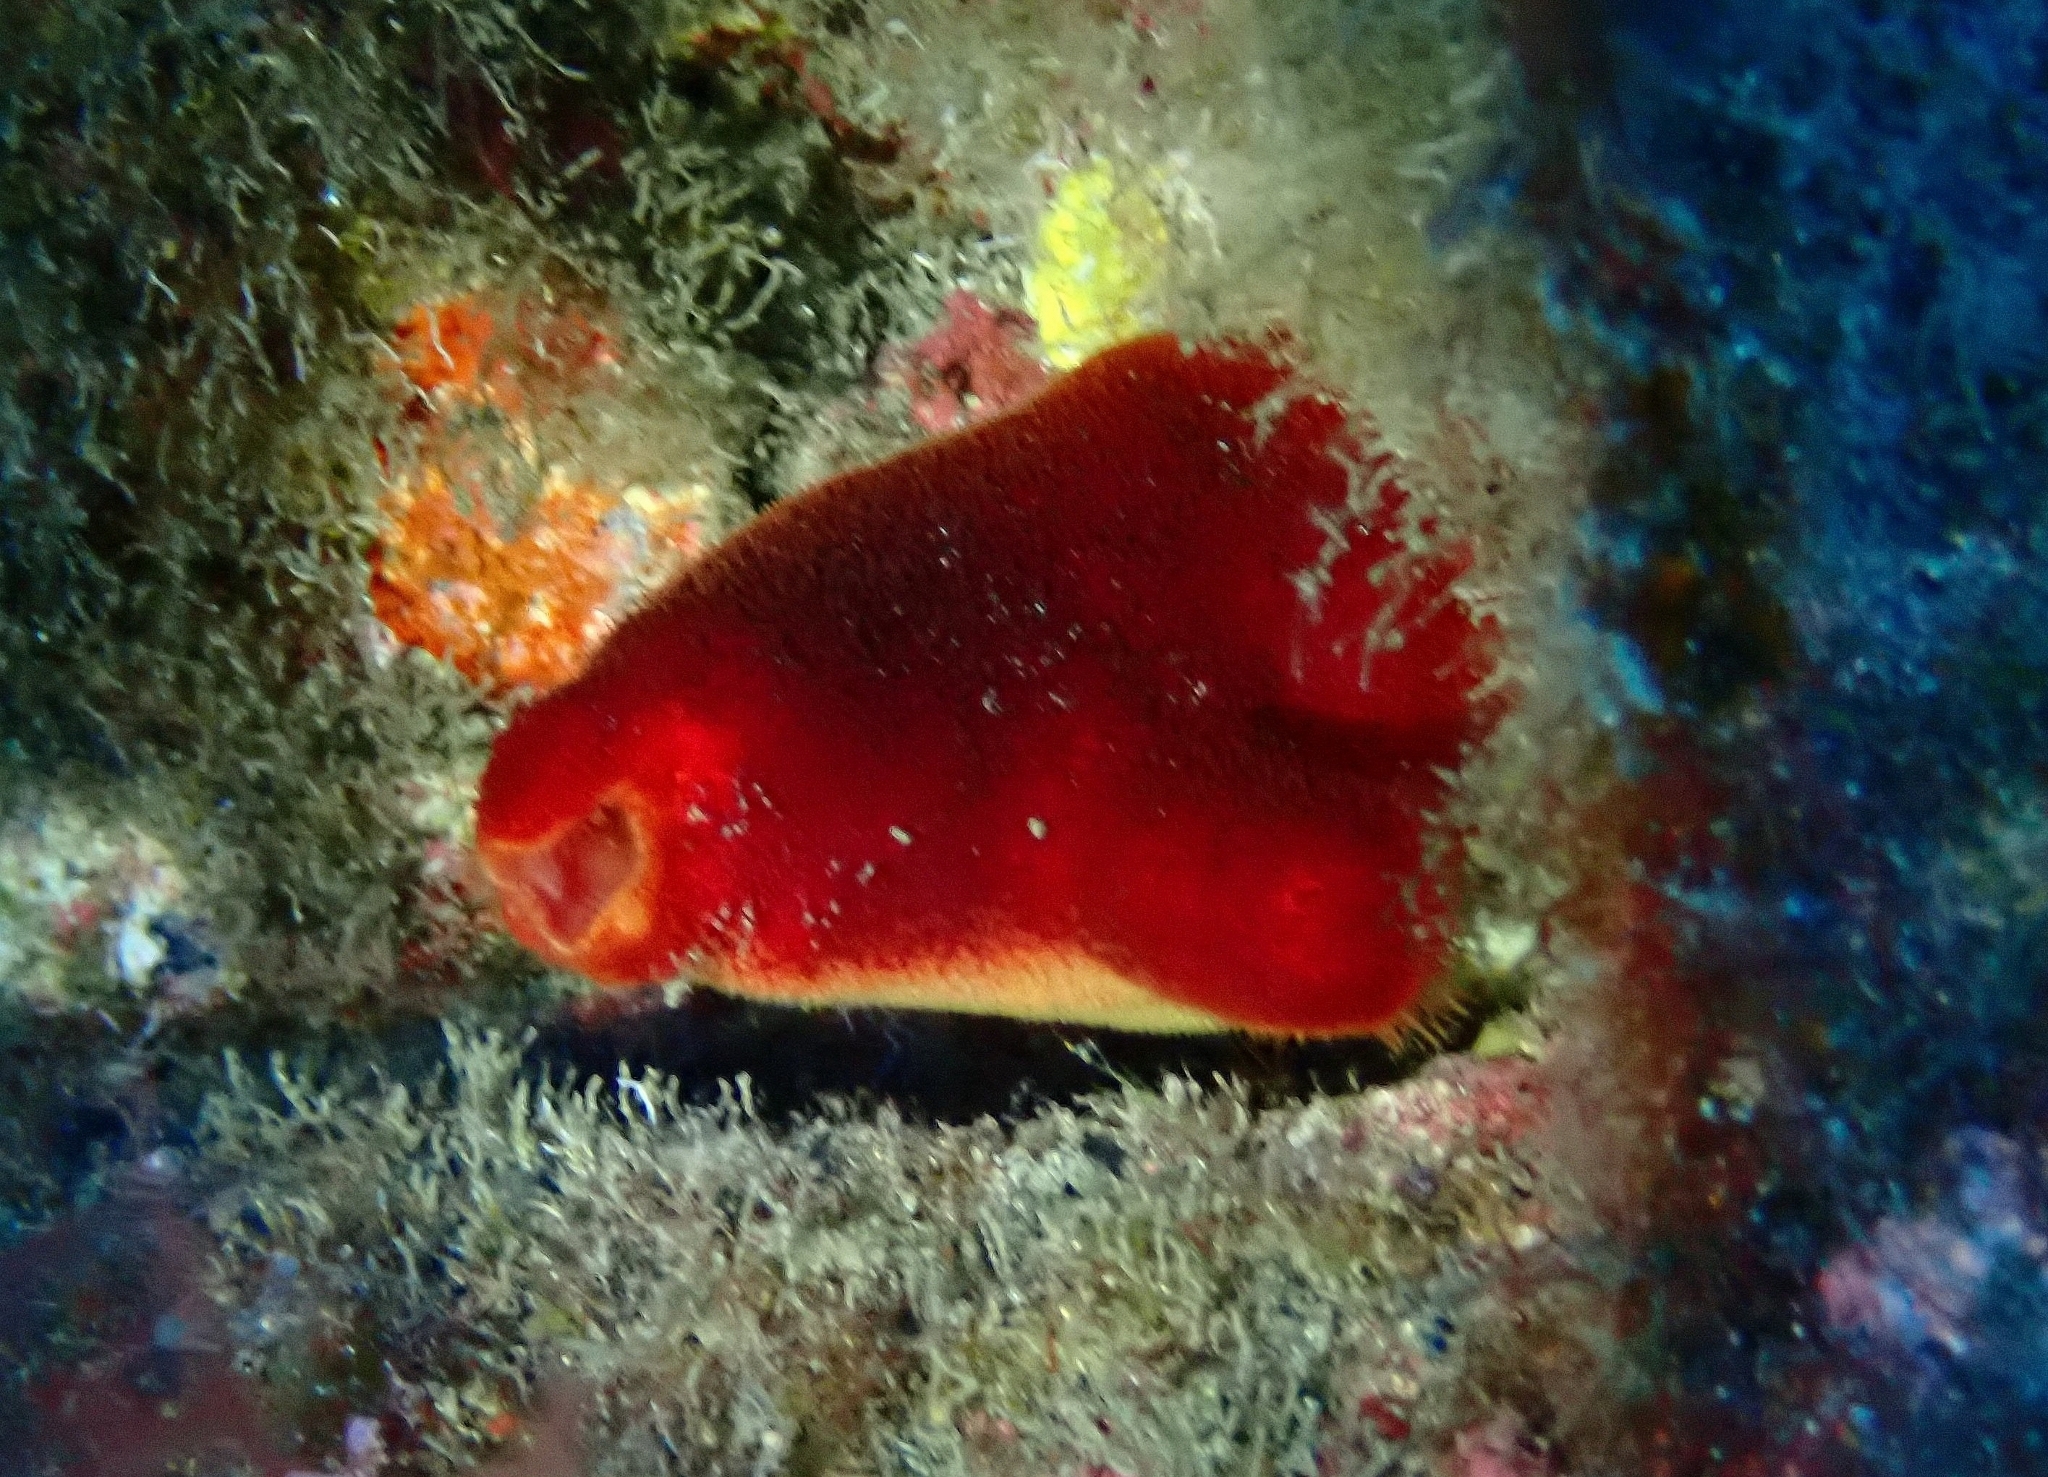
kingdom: Animalia
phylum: Chordata
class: Ascidiacea
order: Stolidobranchia
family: Pyuridae
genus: Halocynthia
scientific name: Halocynthia papillosa
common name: Red sea-squirt
